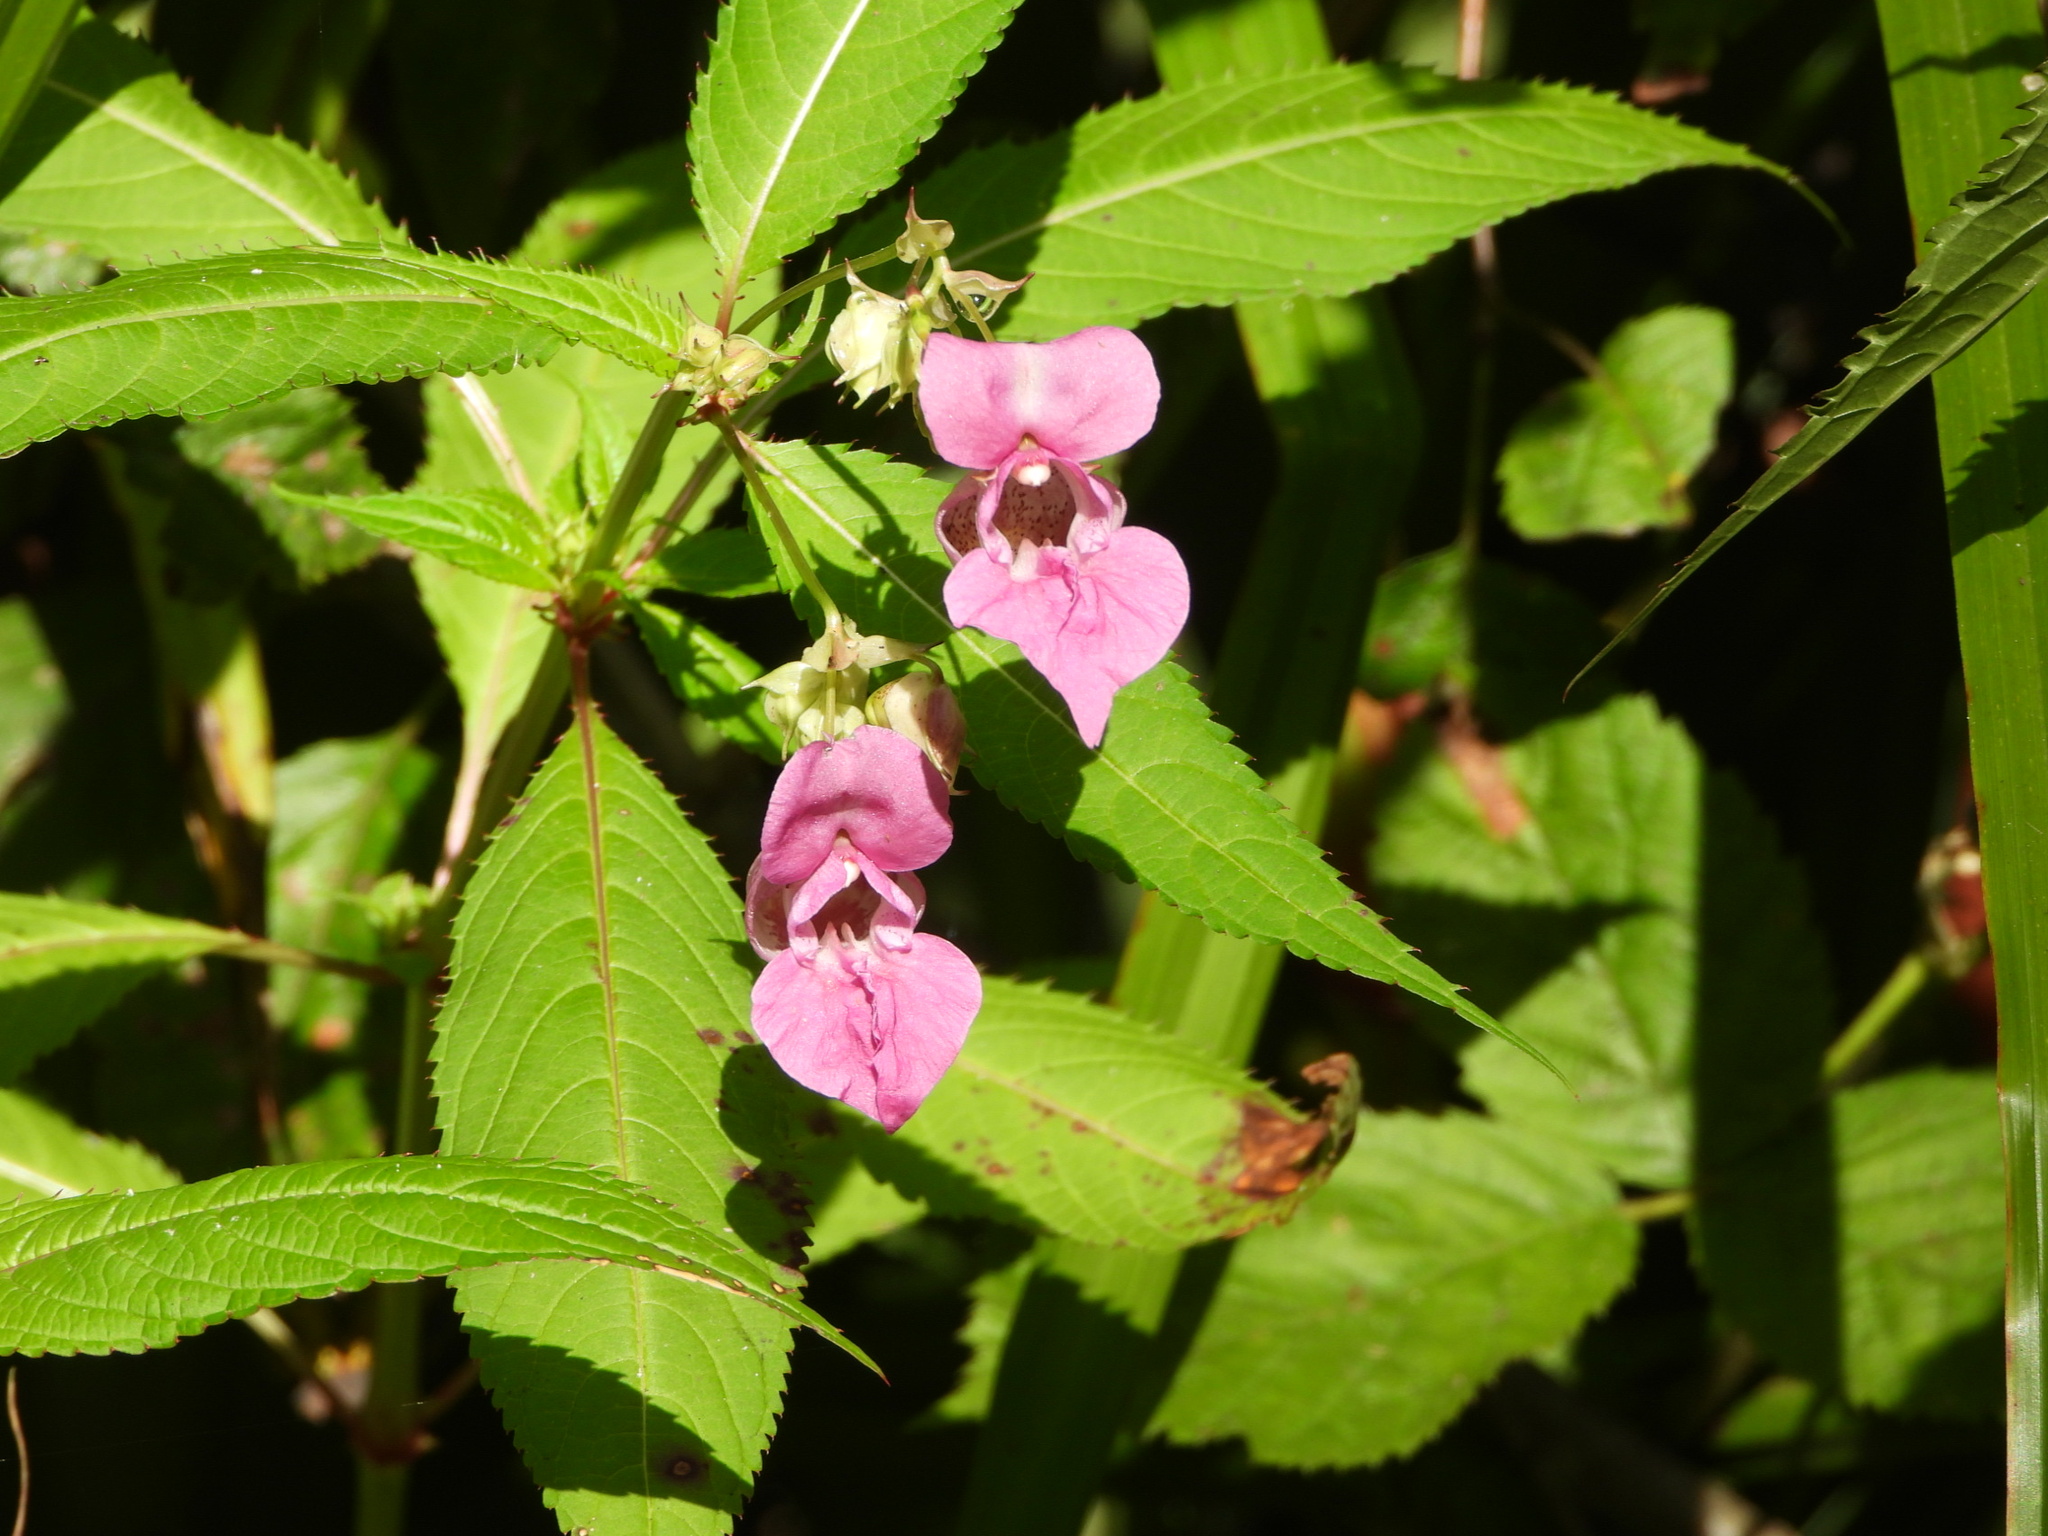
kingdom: Plantae
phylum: Tracheophyta
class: Magnoliopsida
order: Ericales
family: Balsaminaceae
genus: Impatiens
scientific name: Impatiens glandulifera
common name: Himalayan balsam
